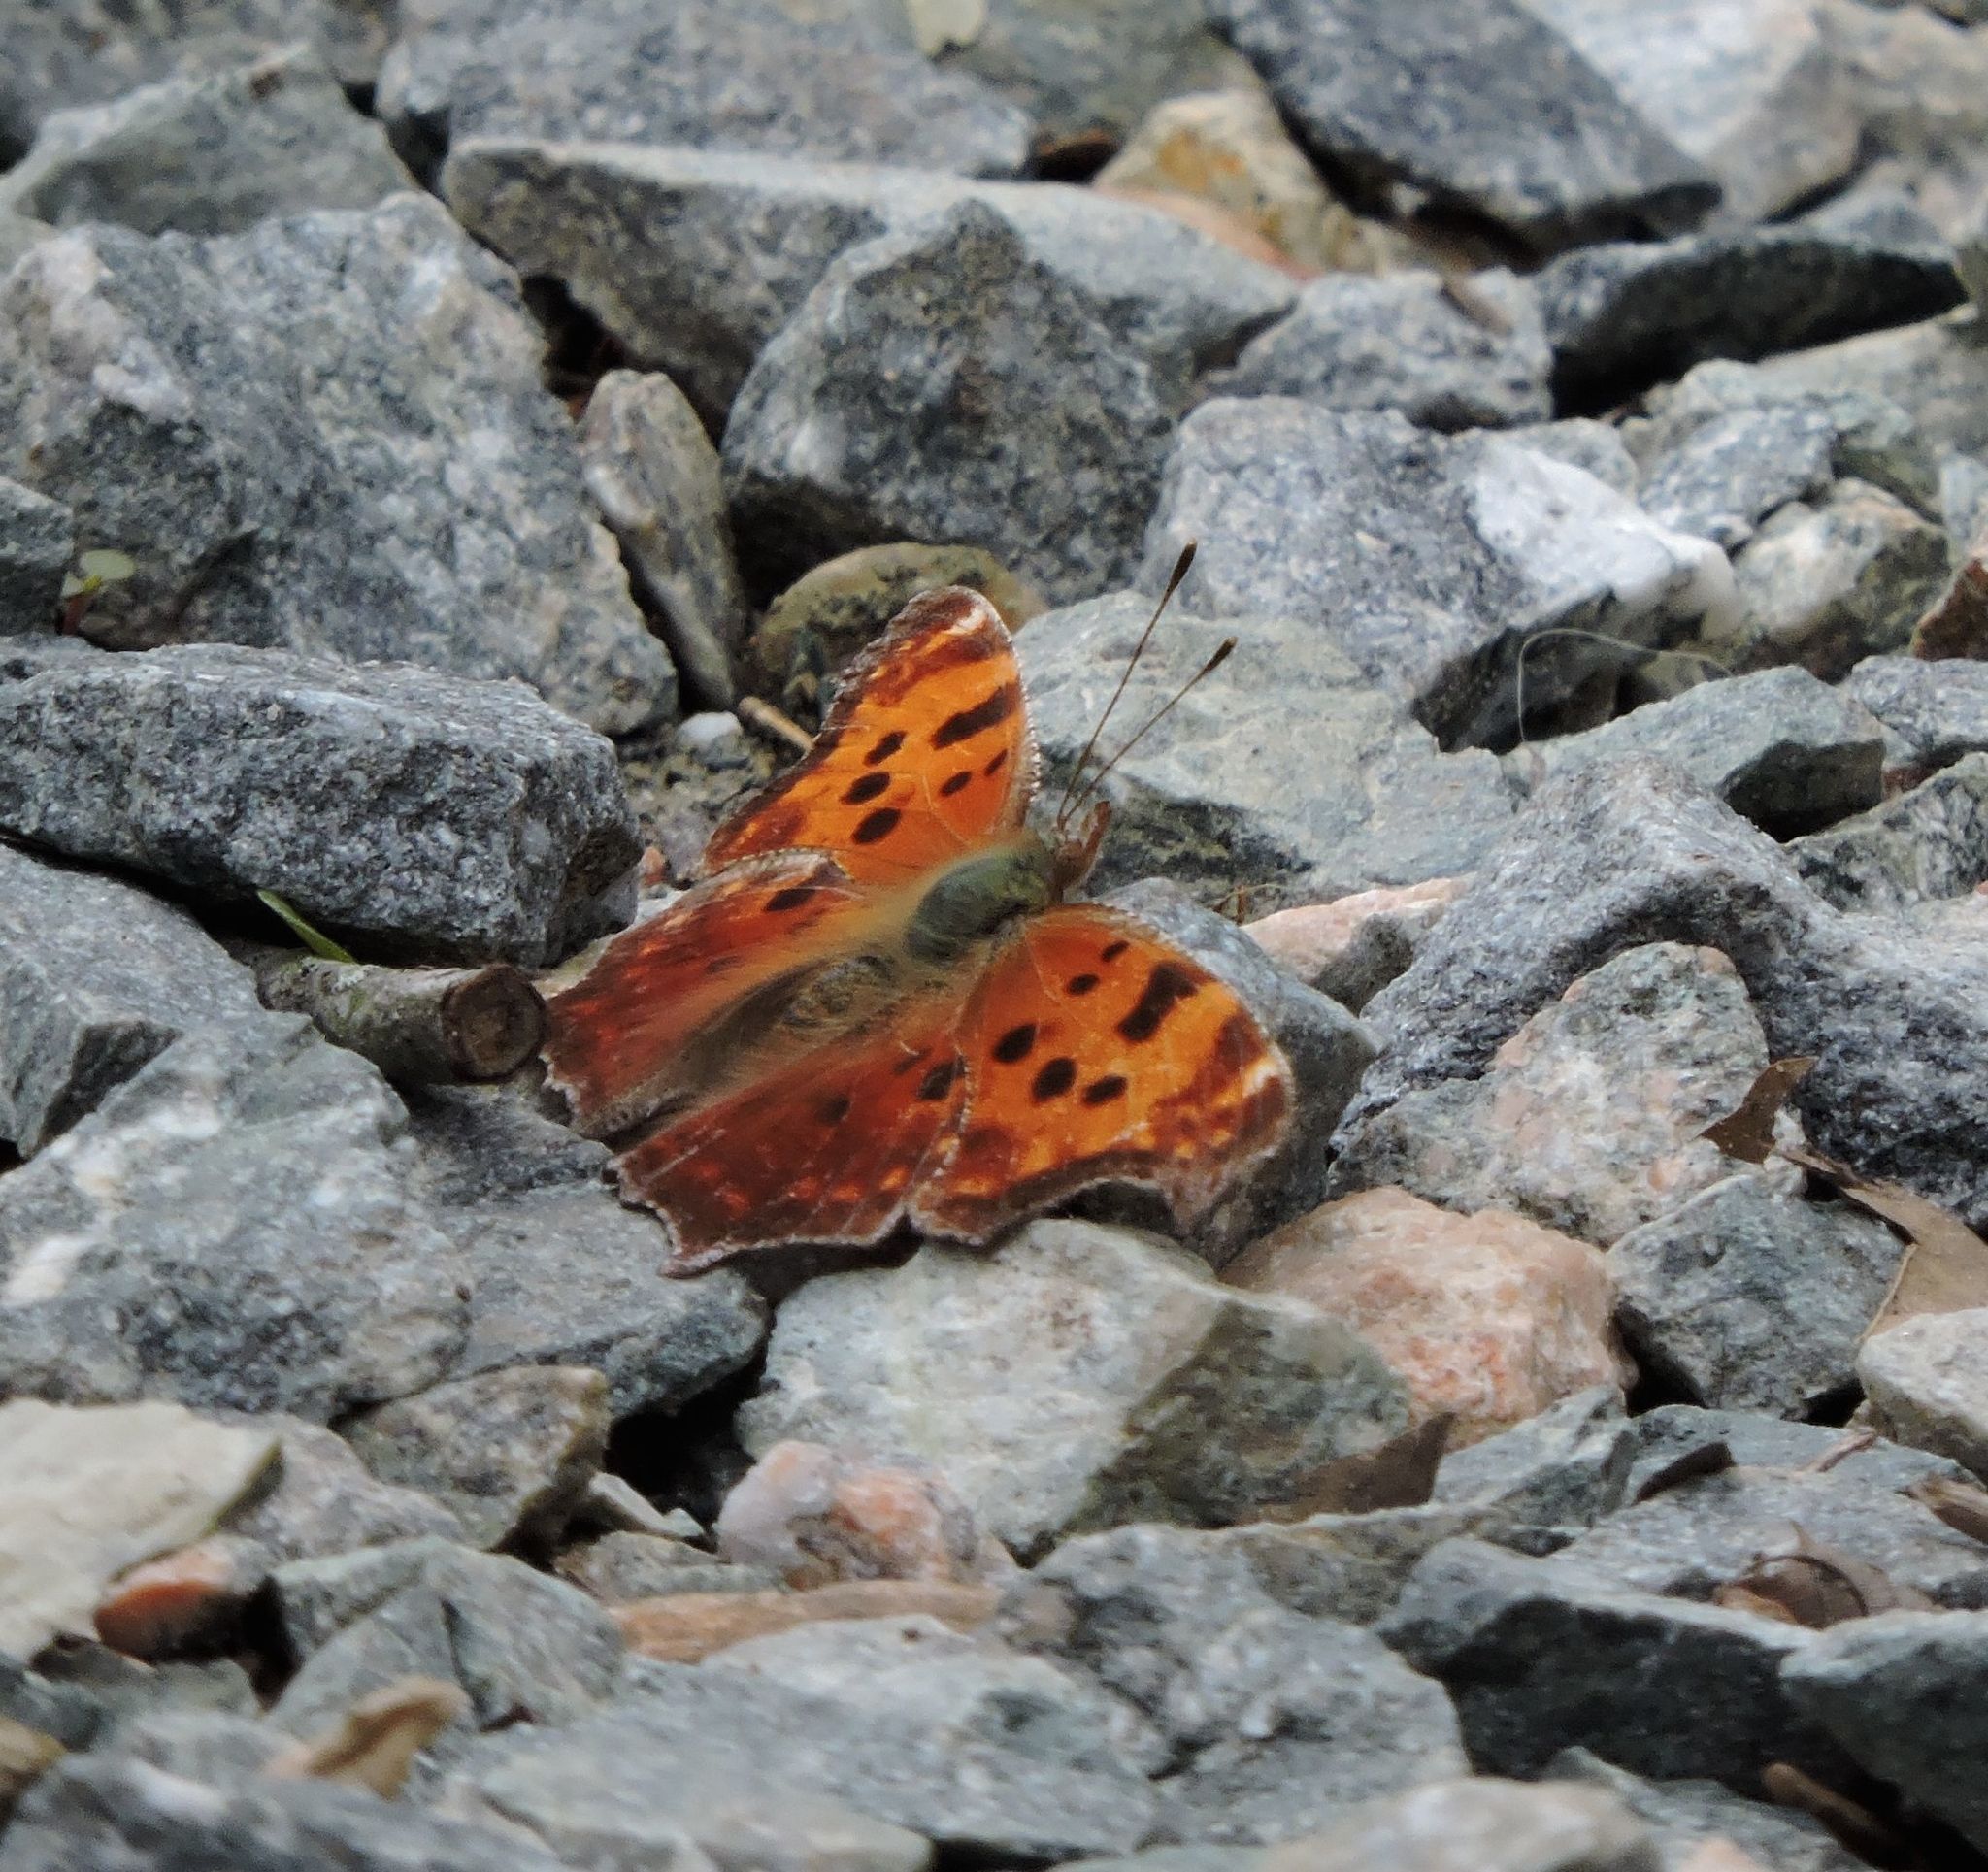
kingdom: Animalia
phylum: Arthropoda
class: Insecta
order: Lepidoptera
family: Nymphalidae
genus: Polygonia
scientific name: Polygonia comma
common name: Eastern comma
